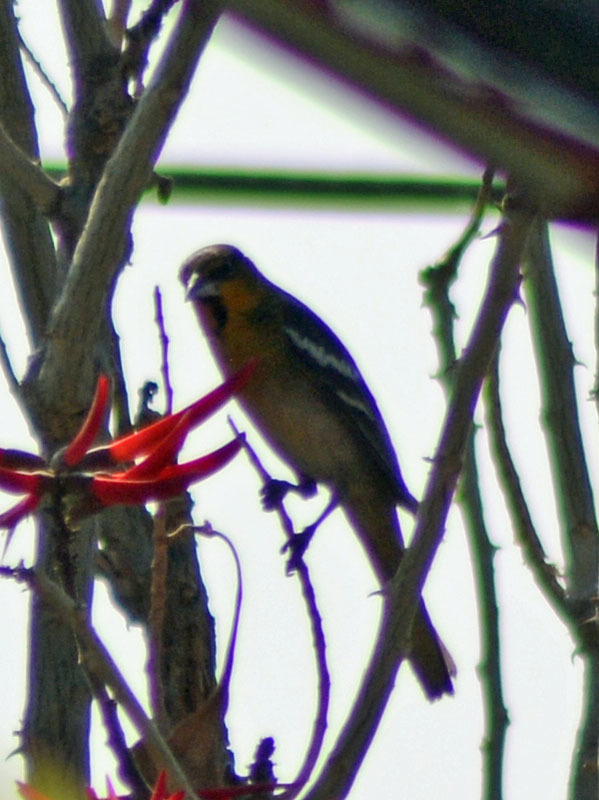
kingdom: Animalia
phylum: Chordata
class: Aves
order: Passeriformes
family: Icteridae
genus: Icterus
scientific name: Icterus abeillei
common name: Black-backed oriole
